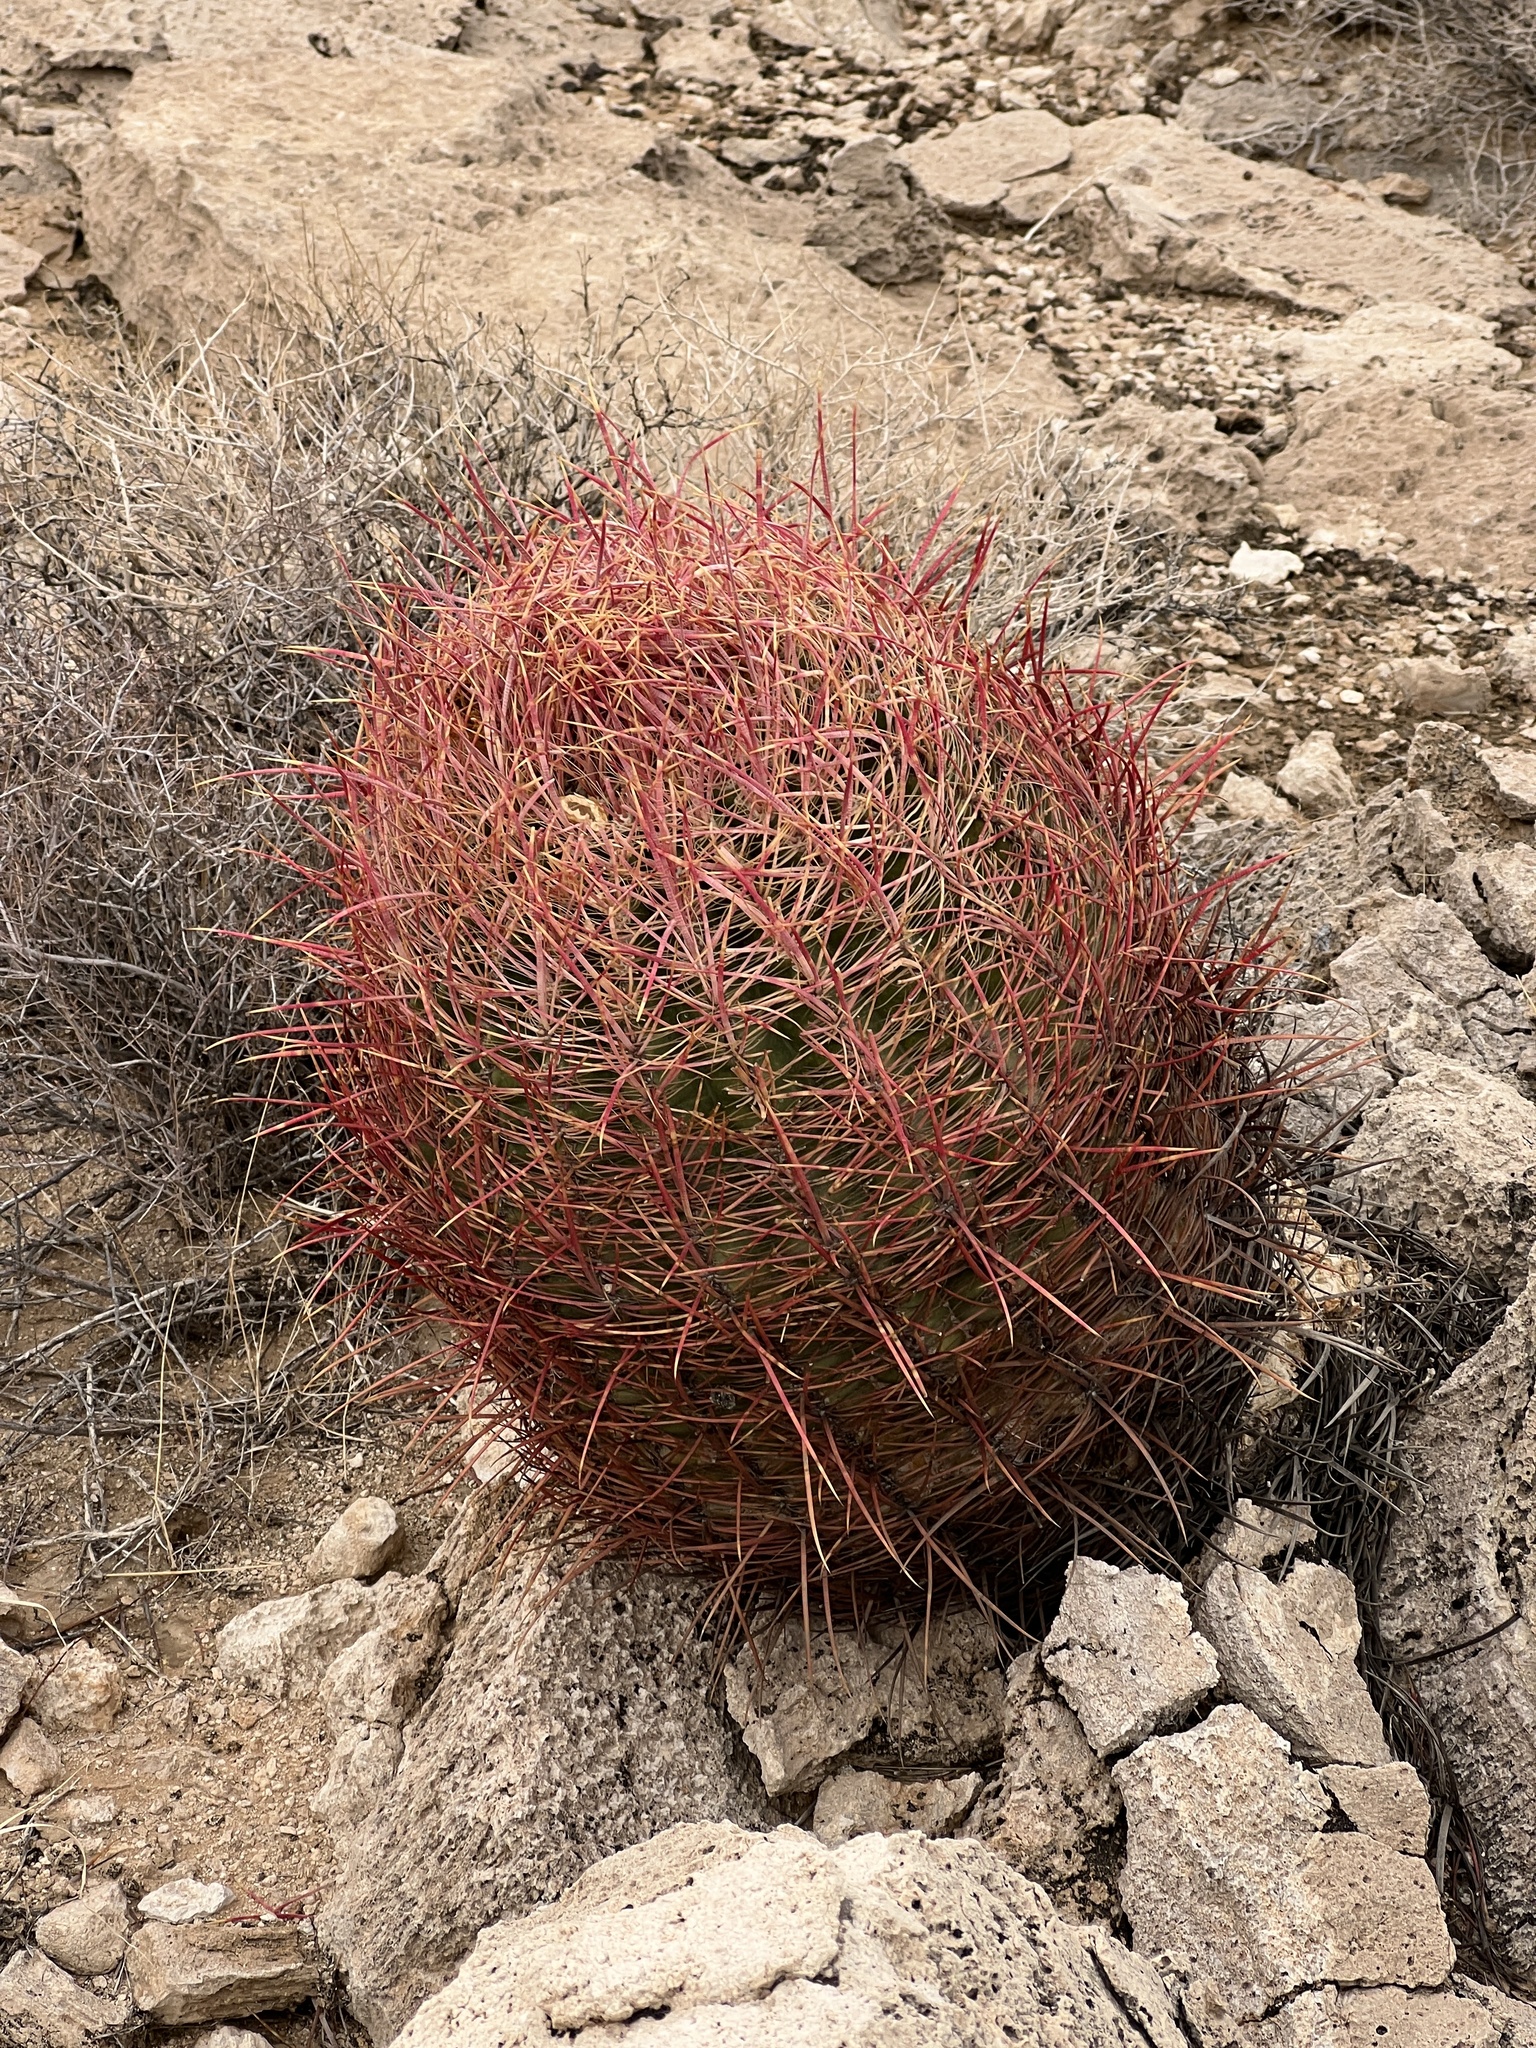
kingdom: Plantae
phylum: Tracheophyta
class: Magnoliopsida
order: Caryophyllales
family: Cactaceae
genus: Ferocactus
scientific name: Ferocactus cylindraceus
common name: California barrel cactus
